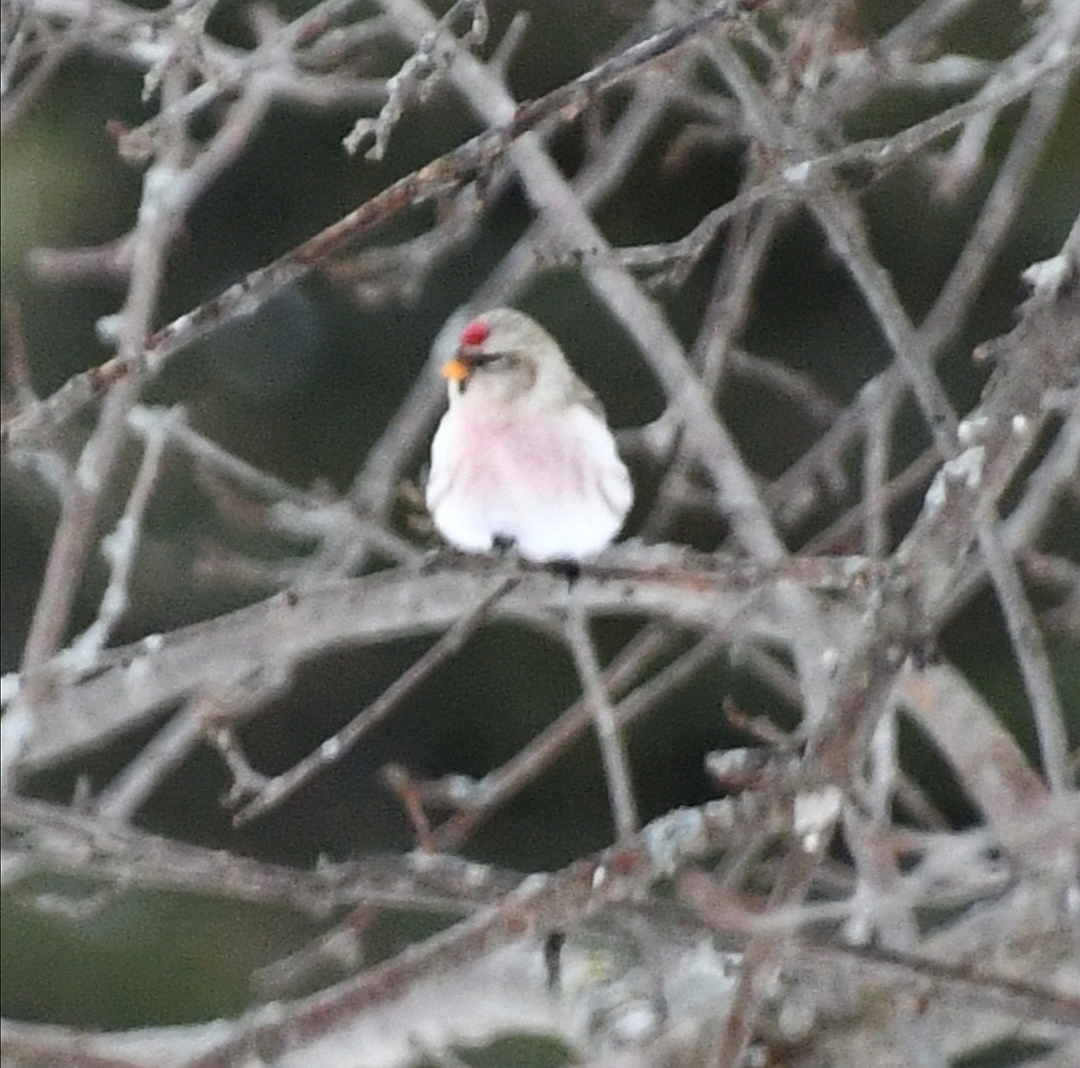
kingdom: Animalia
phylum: Chordata
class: Aves
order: Passeriformes
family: Fringillidae
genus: Acanthis
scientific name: Acanthis hornemanni
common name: Arctic redpoll
